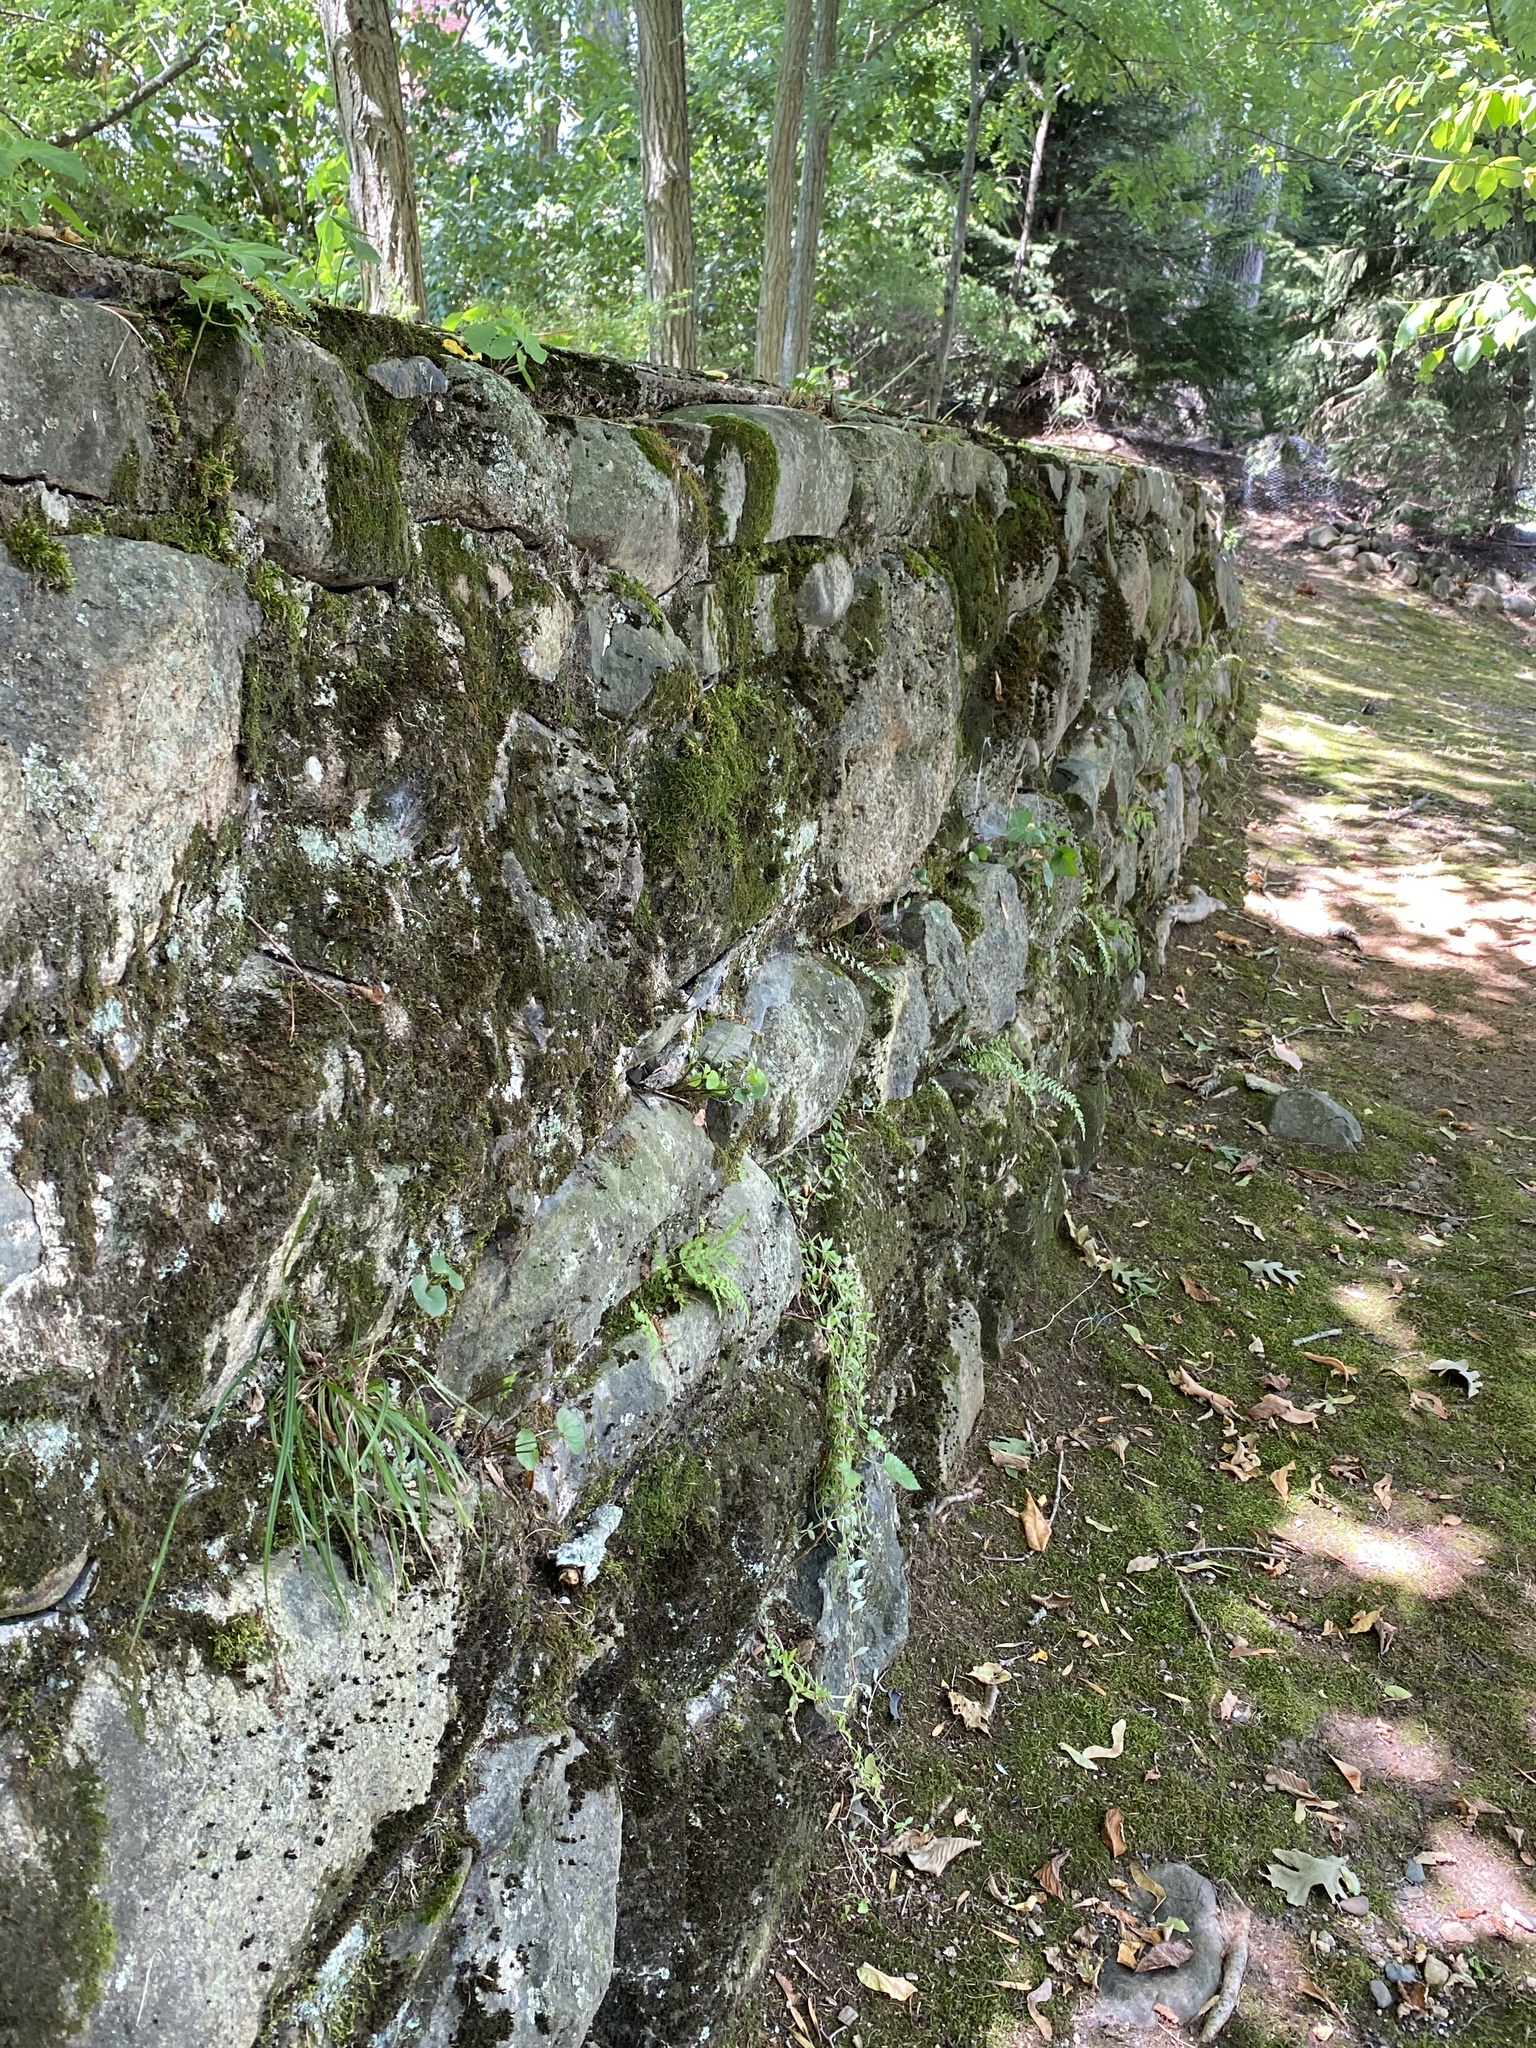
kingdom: Plantae
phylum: Tracheophyta
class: Polypodiopsida
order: Polypodiales
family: Aspleniaceae
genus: Asplenium
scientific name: Asplenium platyneuron
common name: Ebony spleenwort
